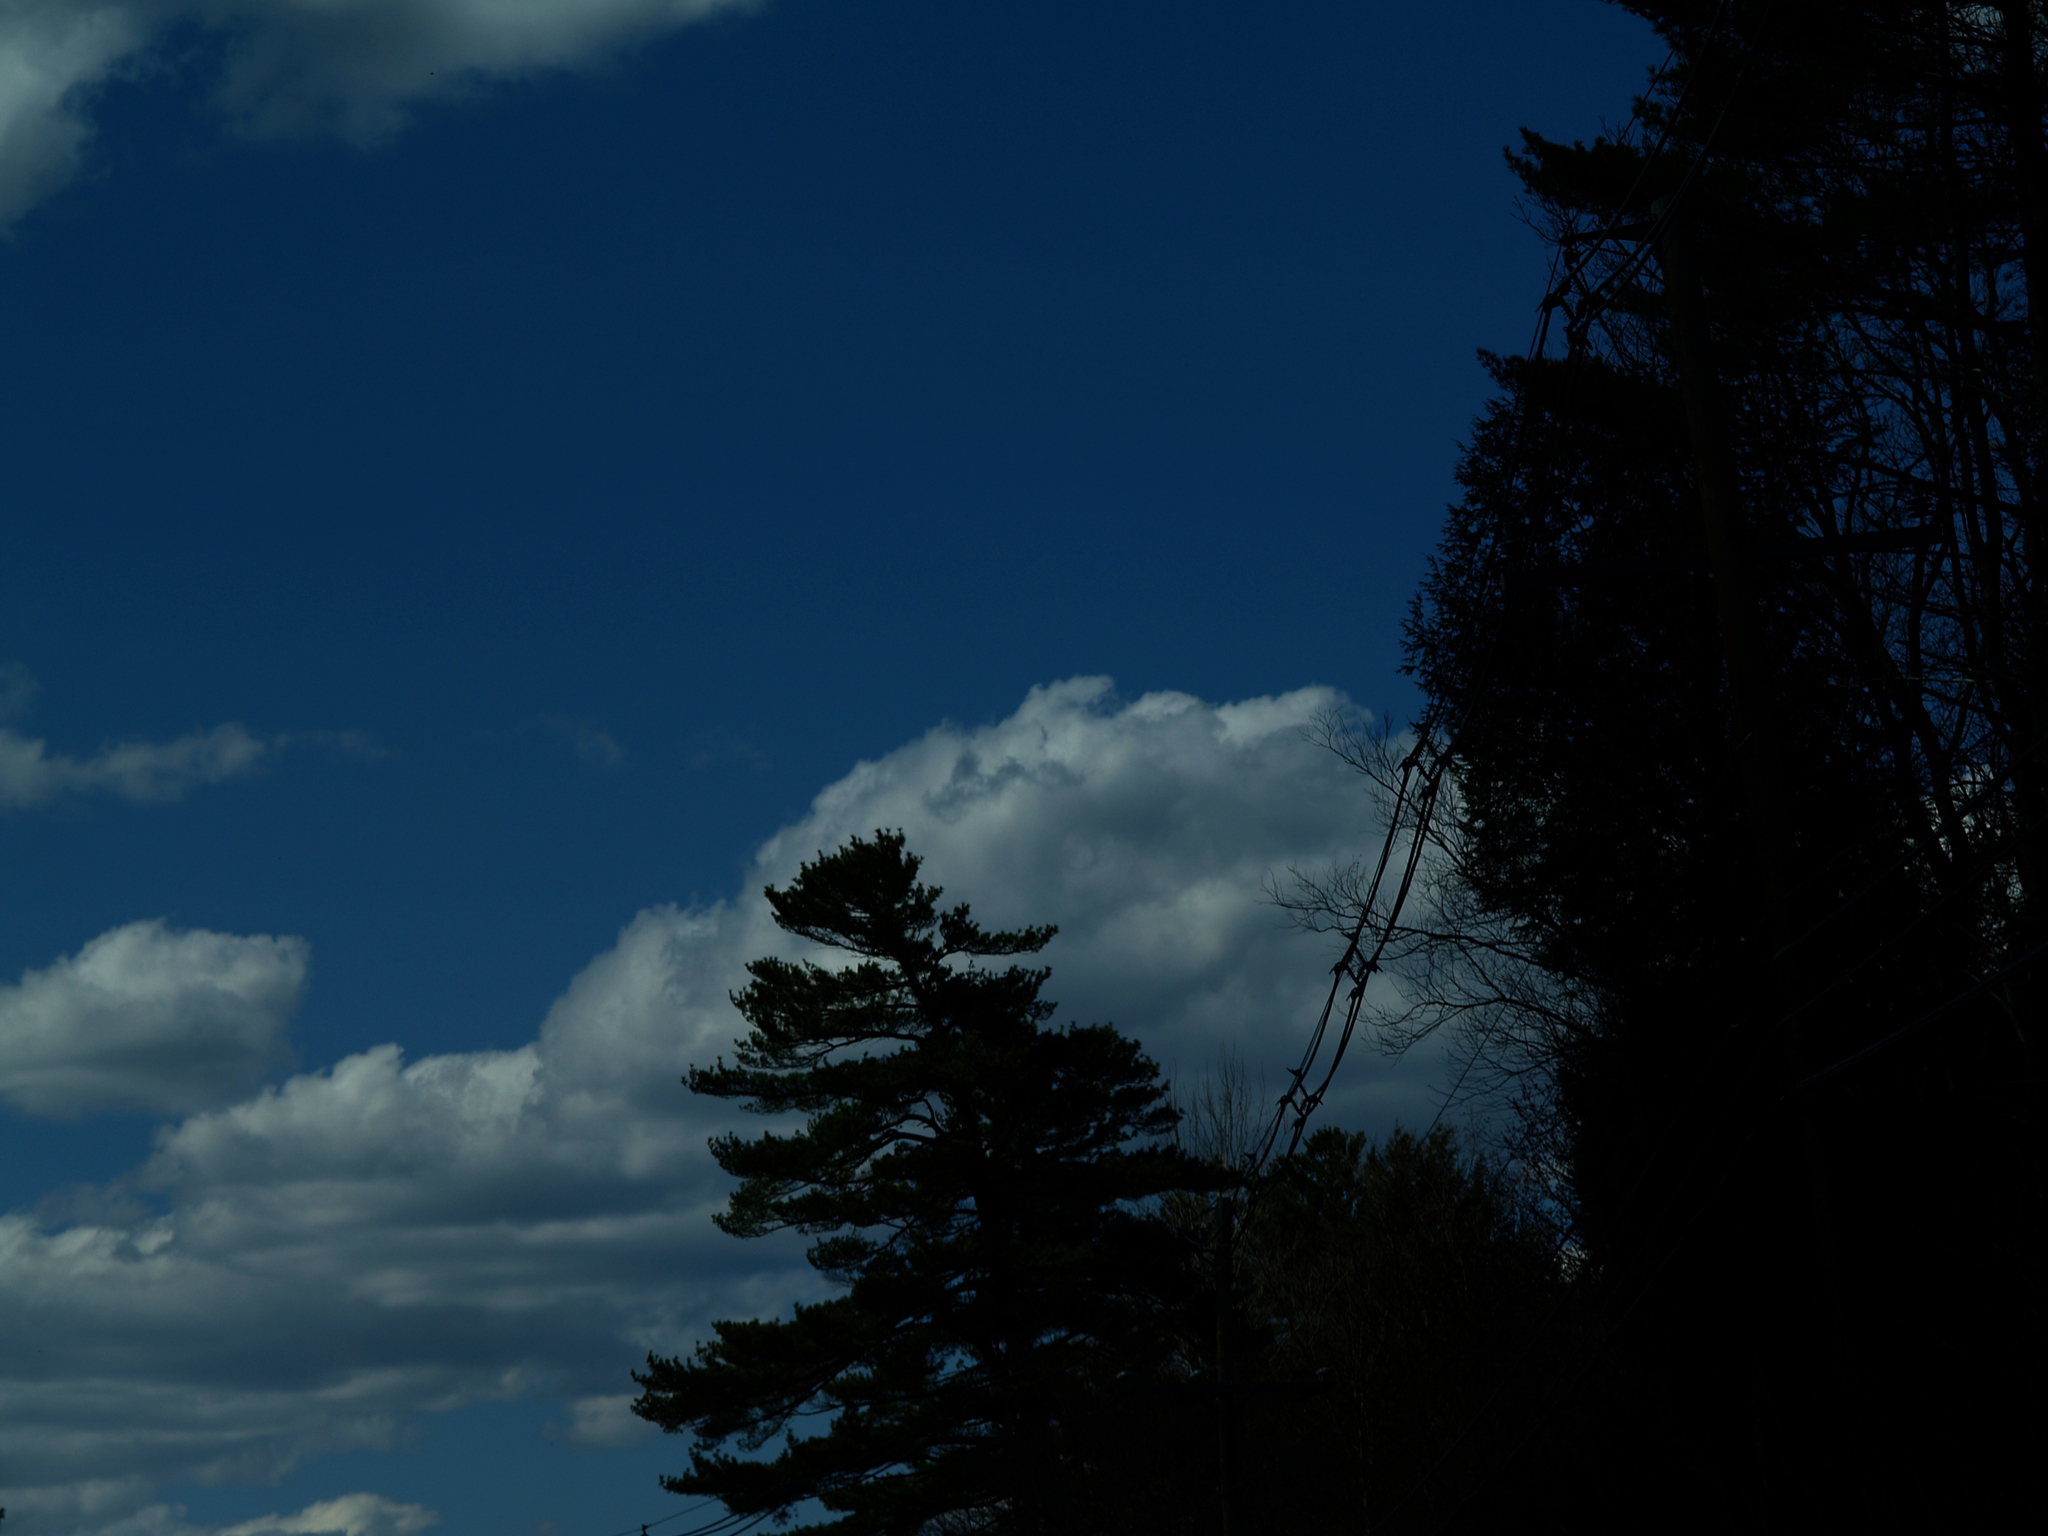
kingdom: Plantae
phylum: Tracheophyta
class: Pinopsida
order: Pinales
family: Pinaceae
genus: Pinus
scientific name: Pinus strobus
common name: Weymouth pine
